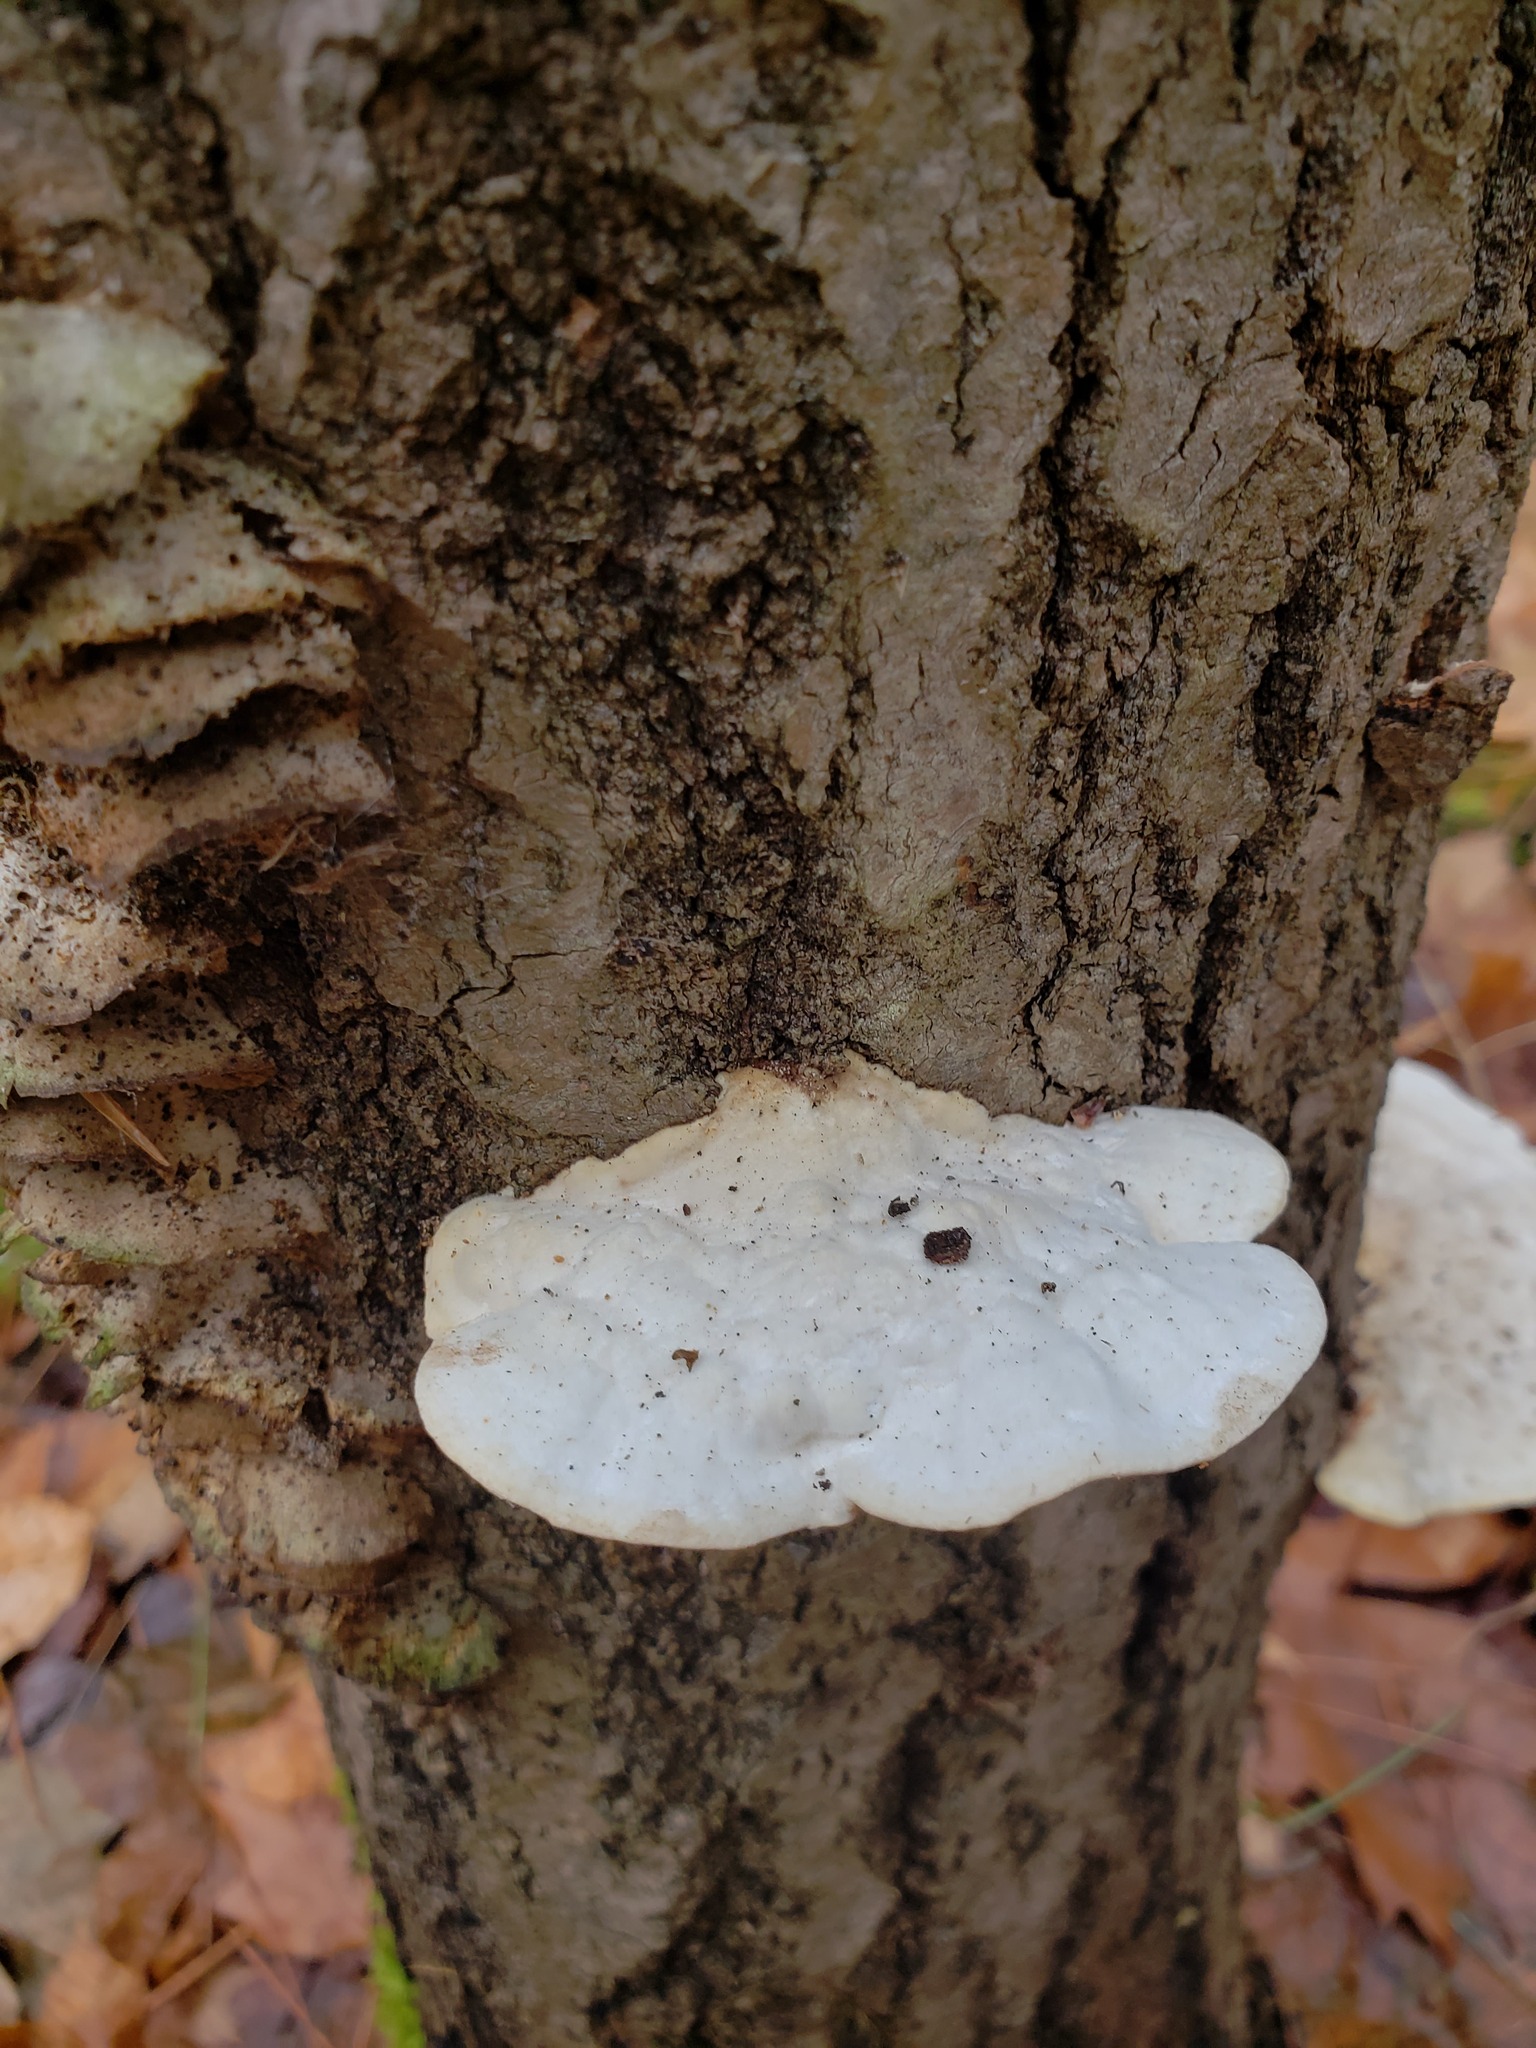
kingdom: Fungi
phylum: Basidiomycota
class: Agaricomycetes
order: Polyporales
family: Polyporaceae
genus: Trametes
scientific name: Trametes gibbosa
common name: Lumpy bracket
